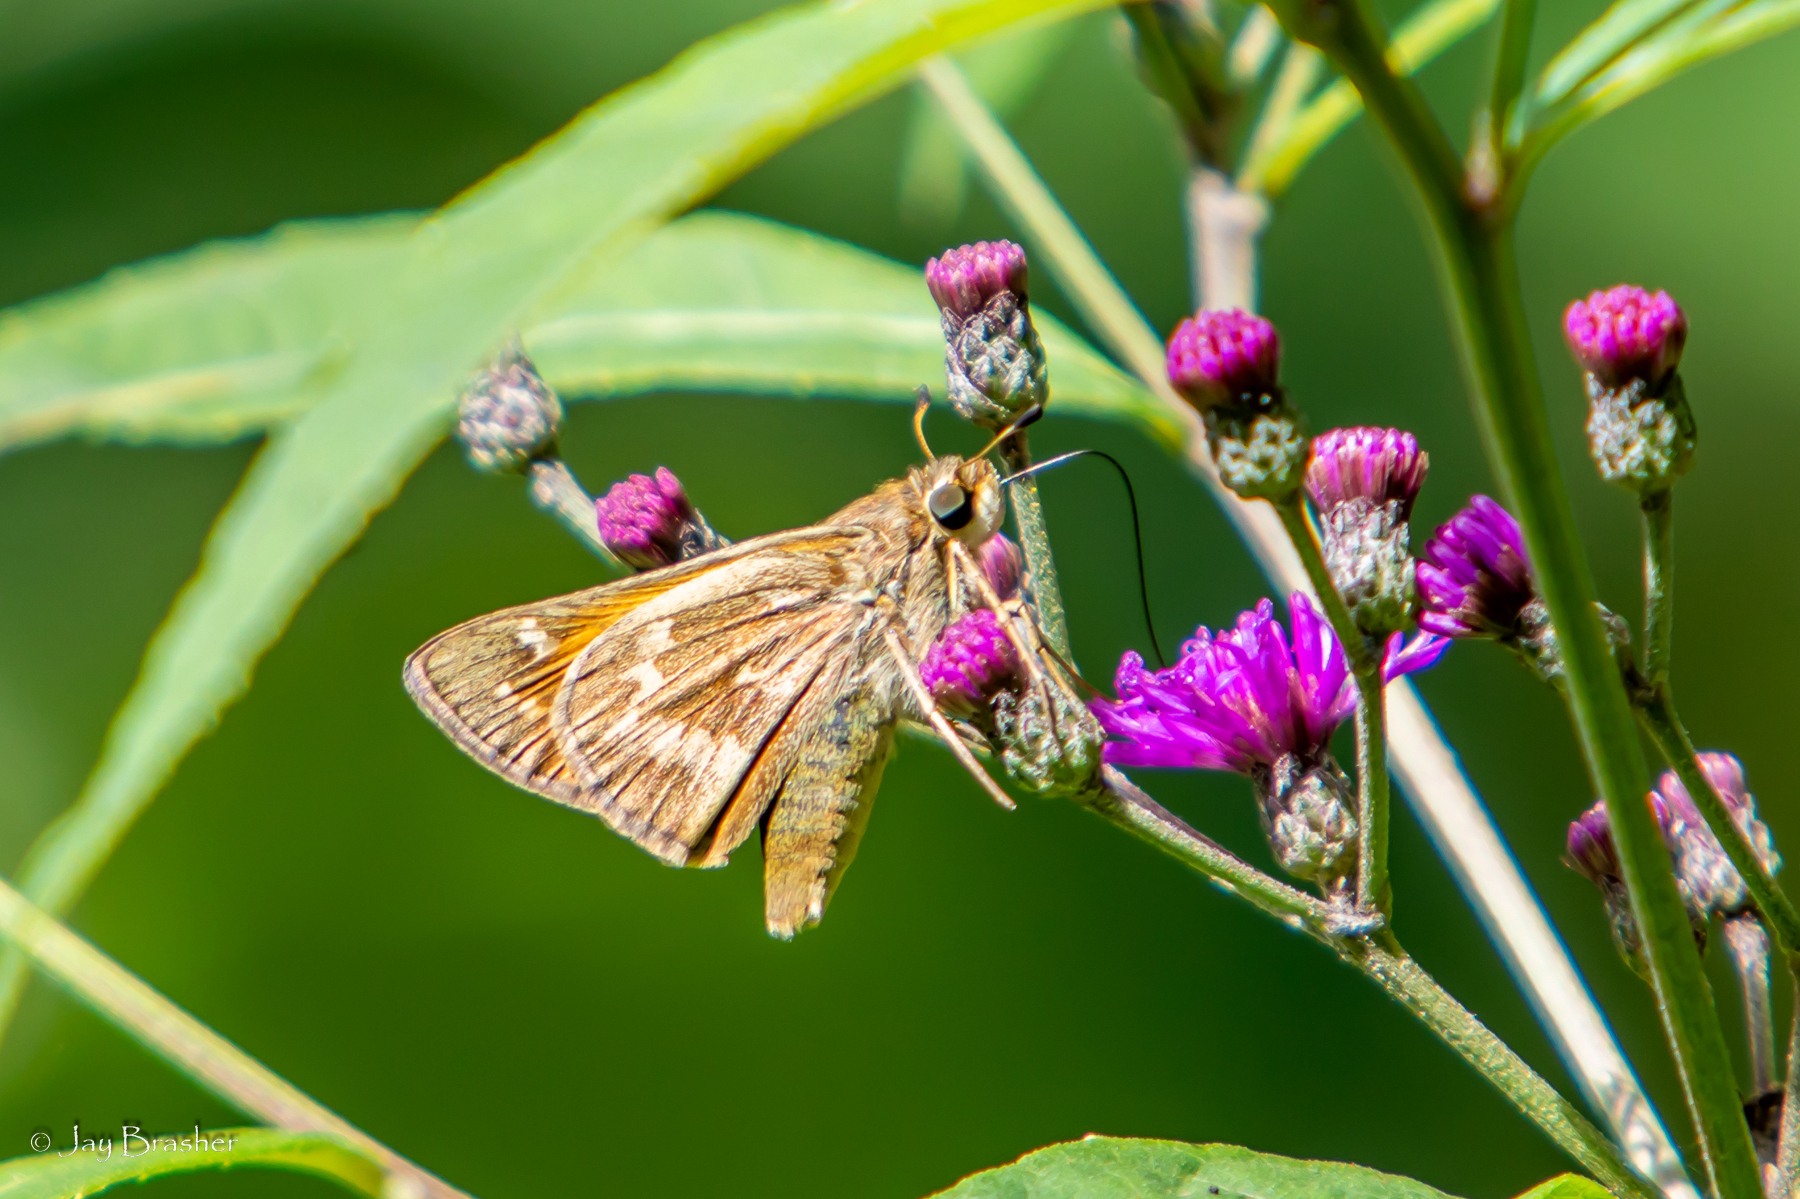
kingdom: Animalia
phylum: Arthropoda
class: Insecta
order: Lepidoptera
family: Hesperiidae
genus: Atalopedes
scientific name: Atalopedes
